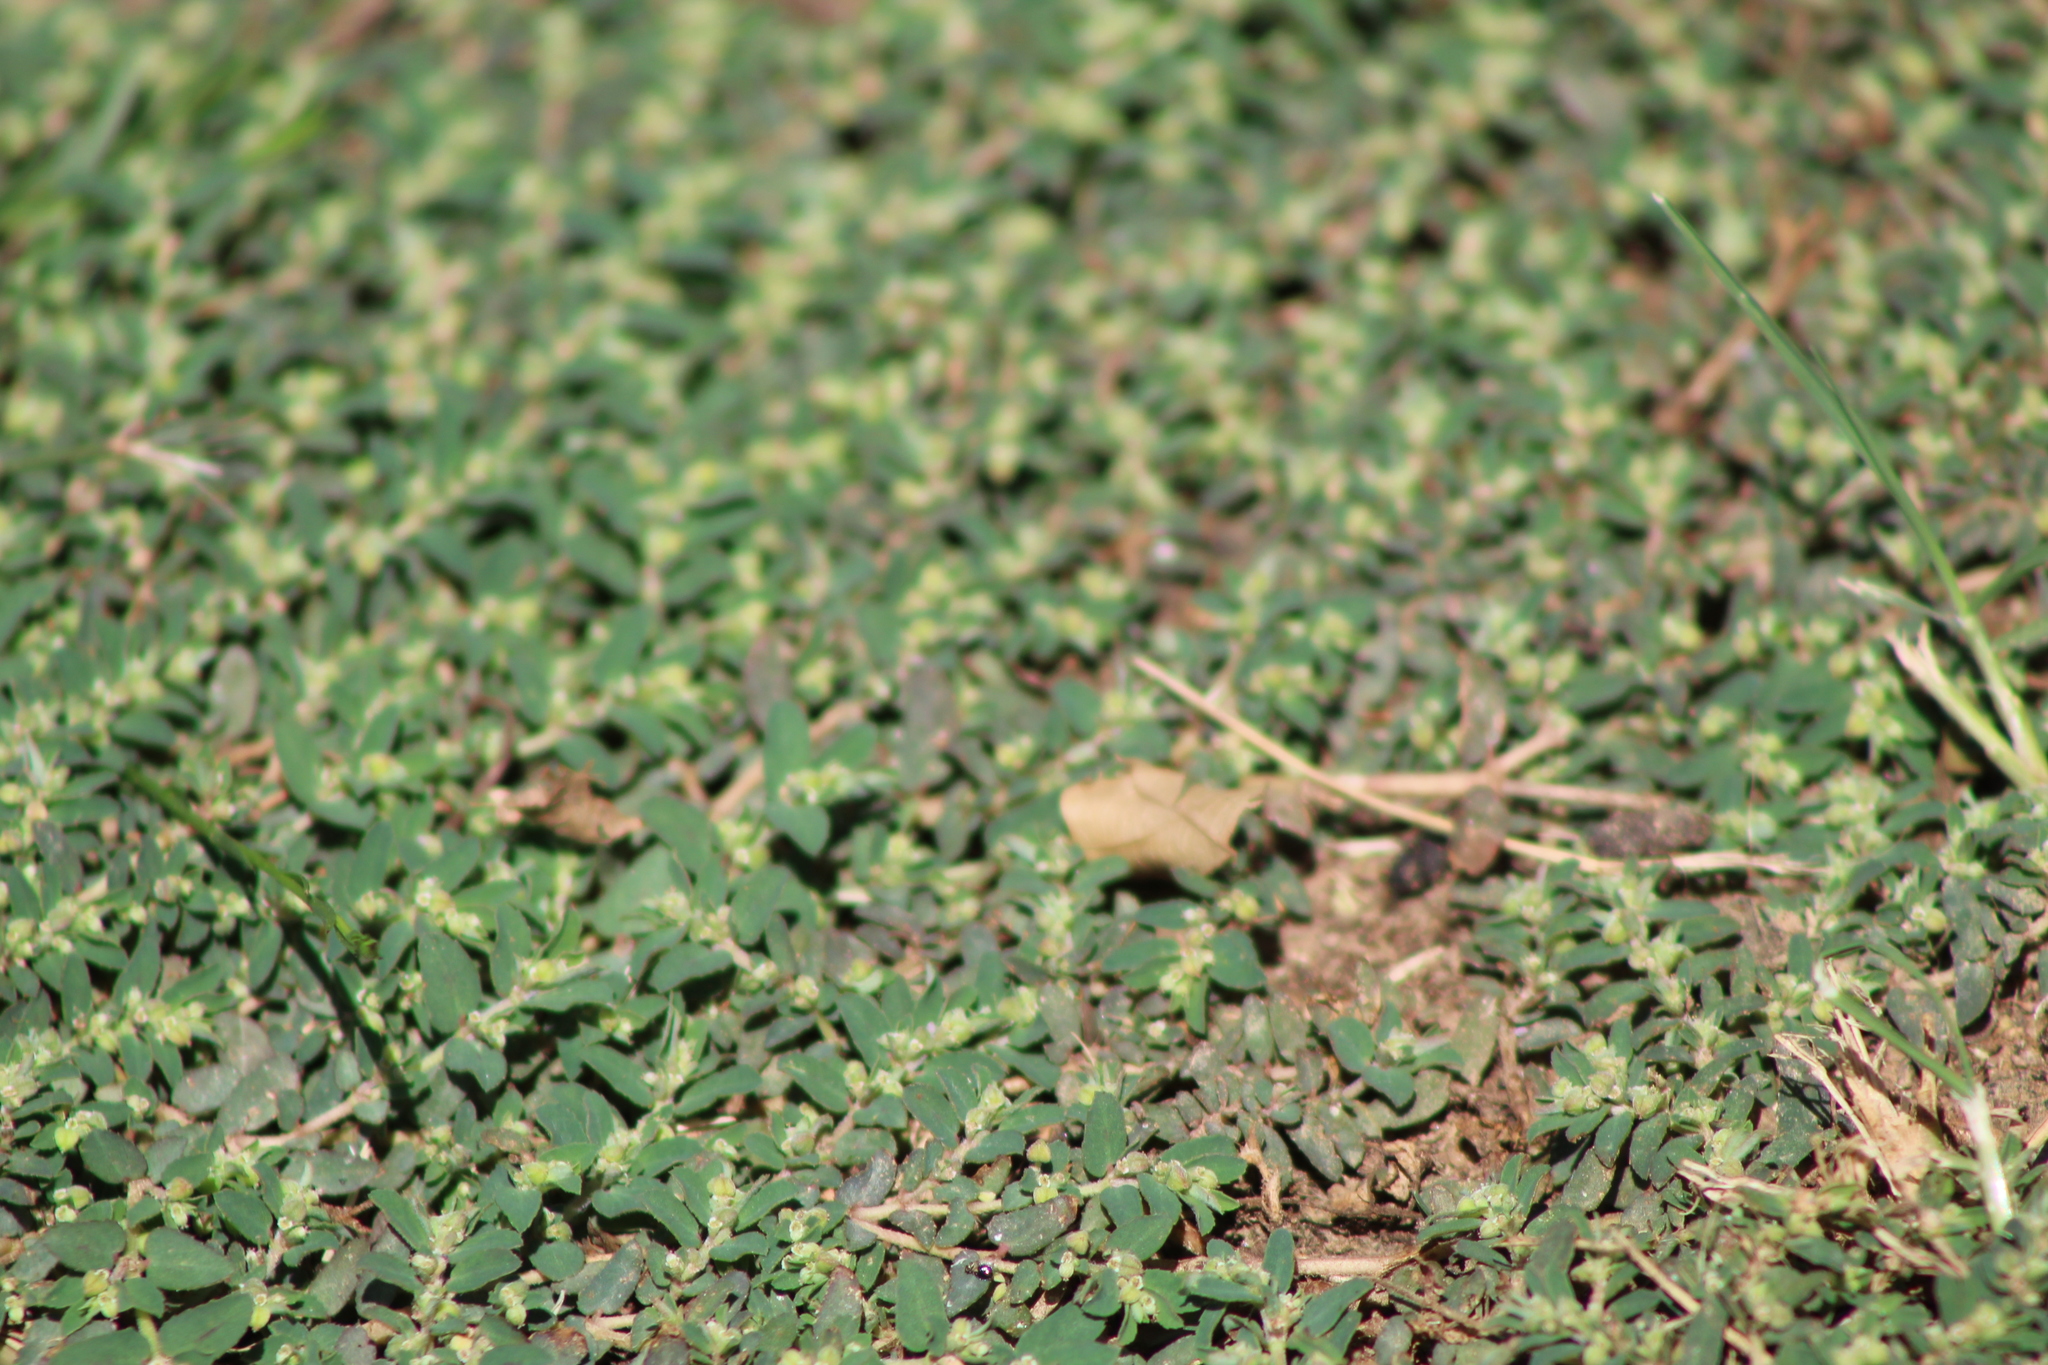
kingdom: Plantae
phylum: Tracheophyta
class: Magnoliopsida
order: Malpighiales
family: Euphorbiaceae
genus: Euphorbia
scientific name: Euphorbia maculata
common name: Spotted spurge
